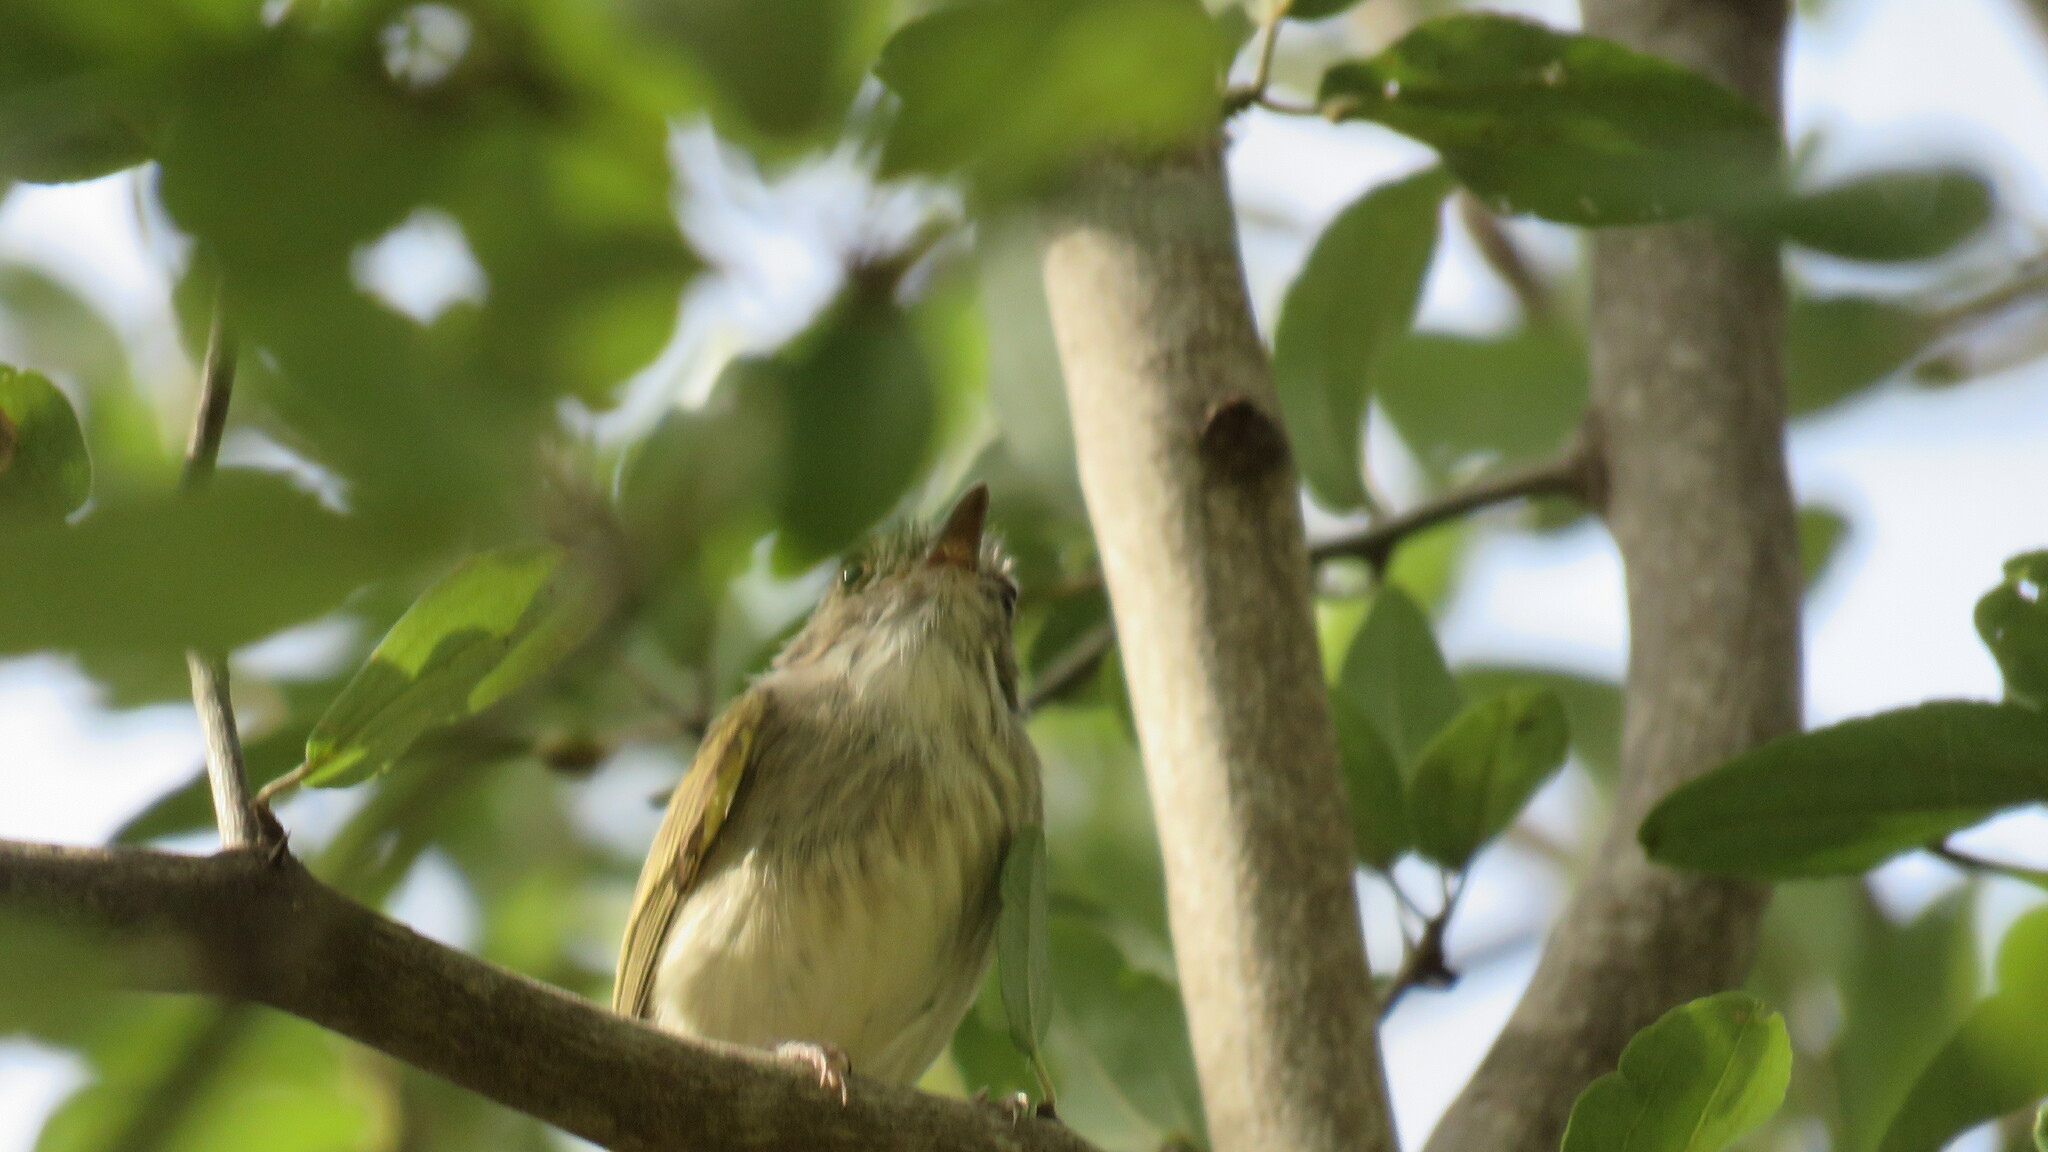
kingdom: Animalia
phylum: Chordata
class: Aves
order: Passeriformes
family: Tyrannidae
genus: Hemitriccus
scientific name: Hemitriccus margaritaceiventer
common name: Pearly-vented tody-tyrant
